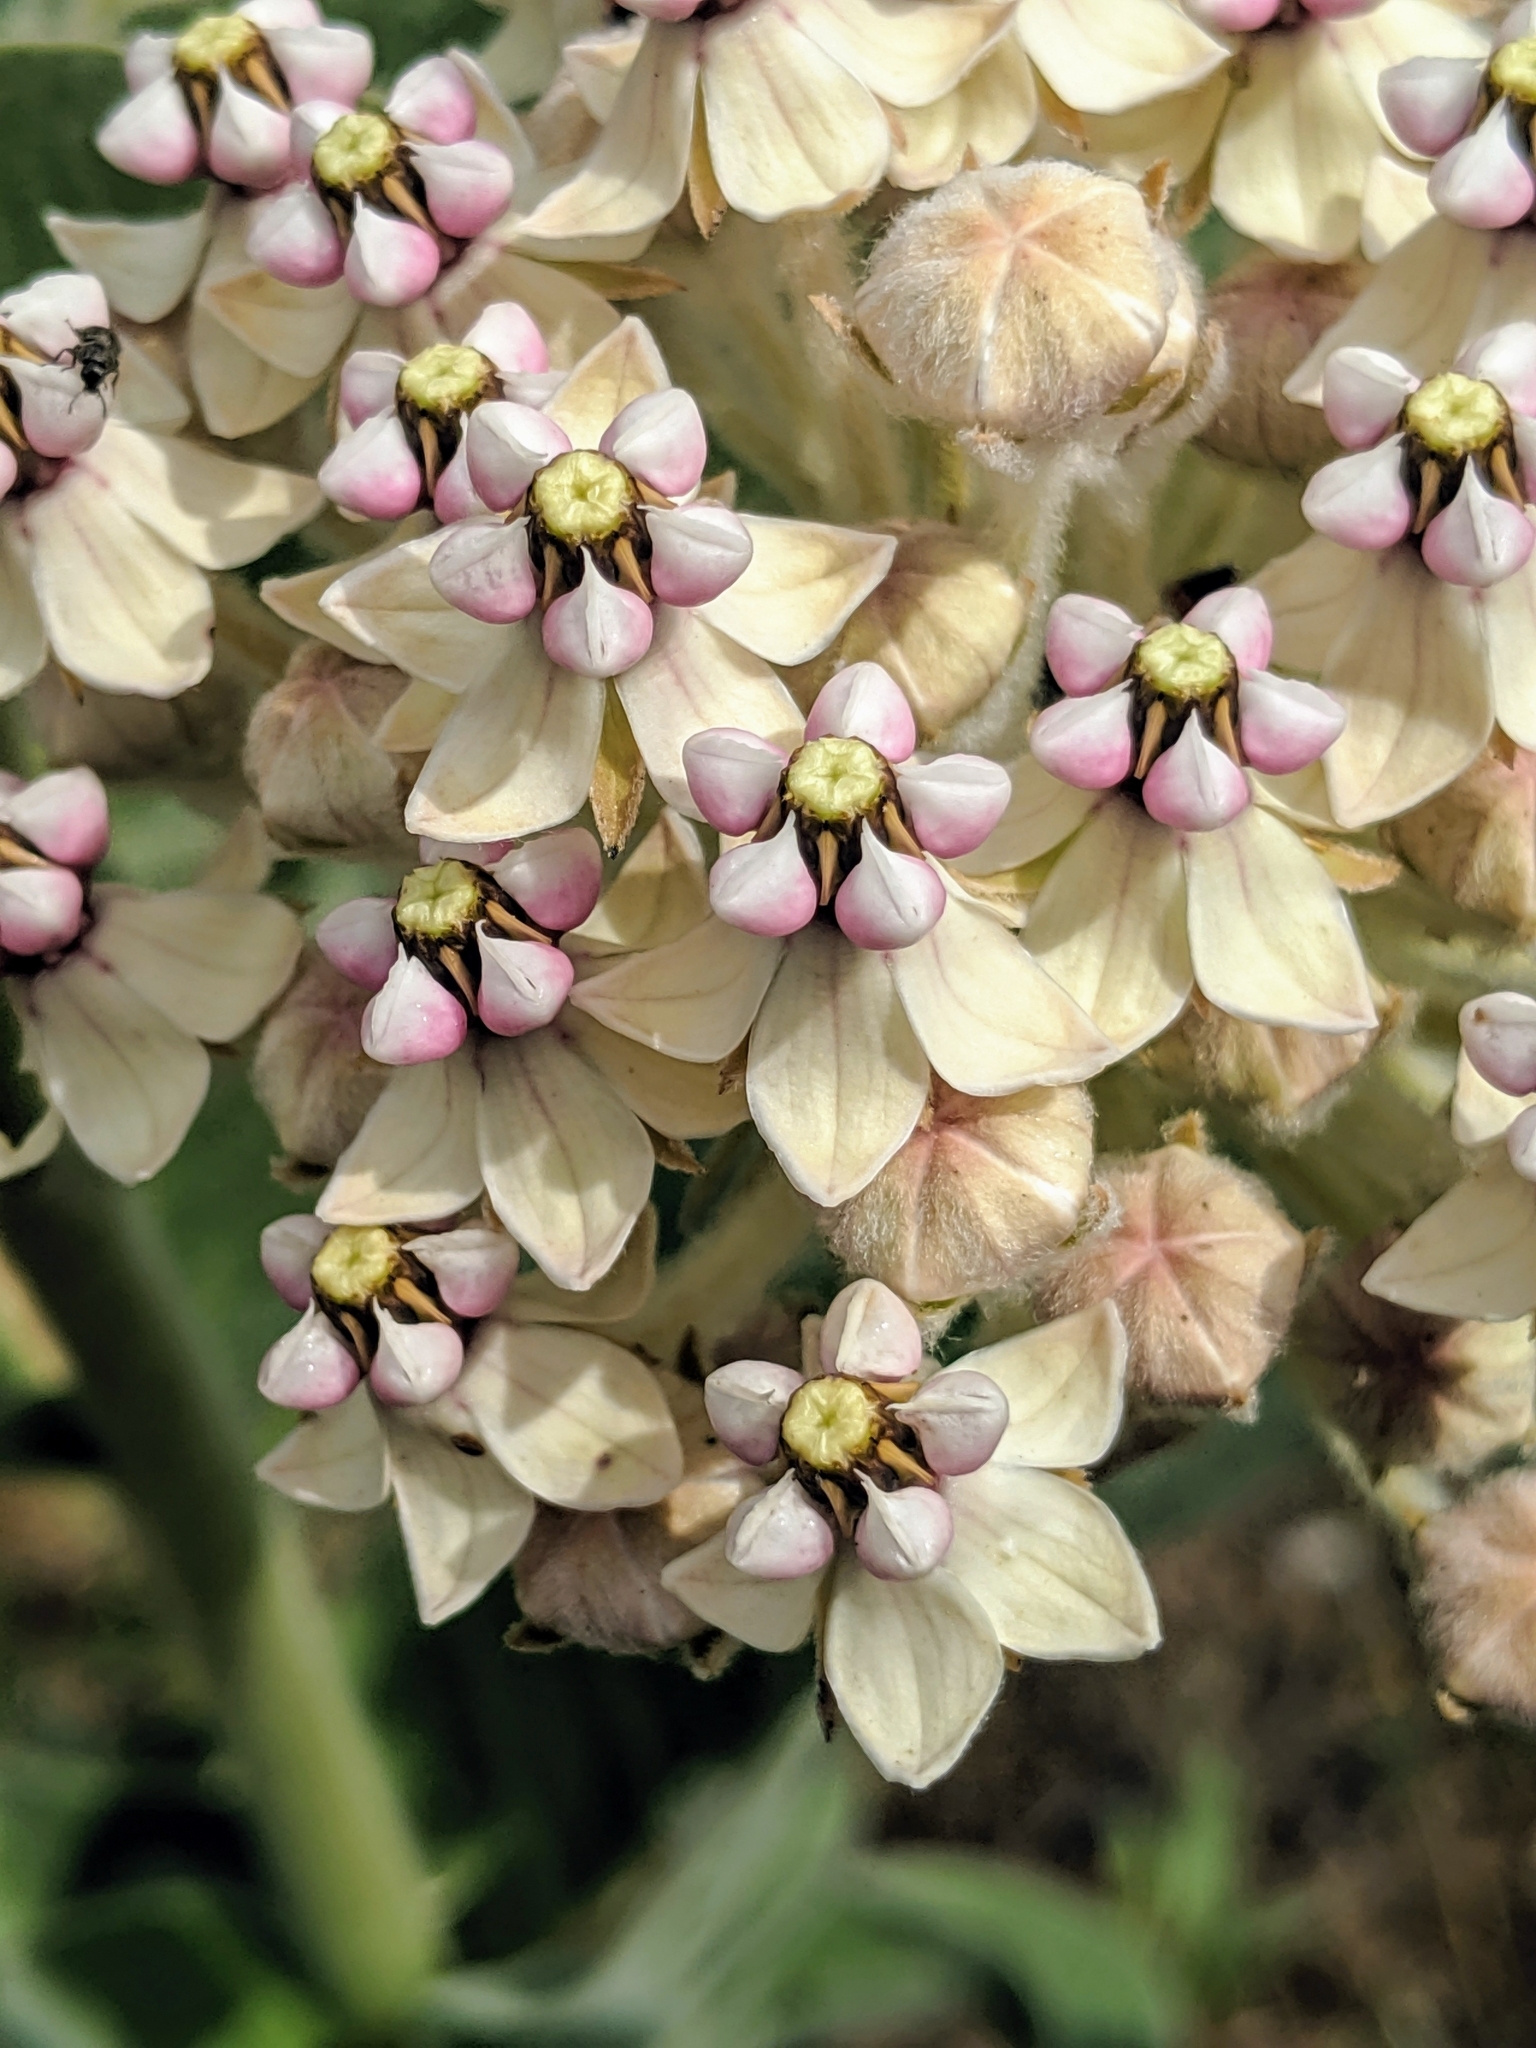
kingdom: Plantae
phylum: Tracheophyta
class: Magnoliopsida
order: Gentianales
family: Apocynaceae
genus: Asclepias
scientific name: Asclepias eriocarpa
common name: Indian milkweed
